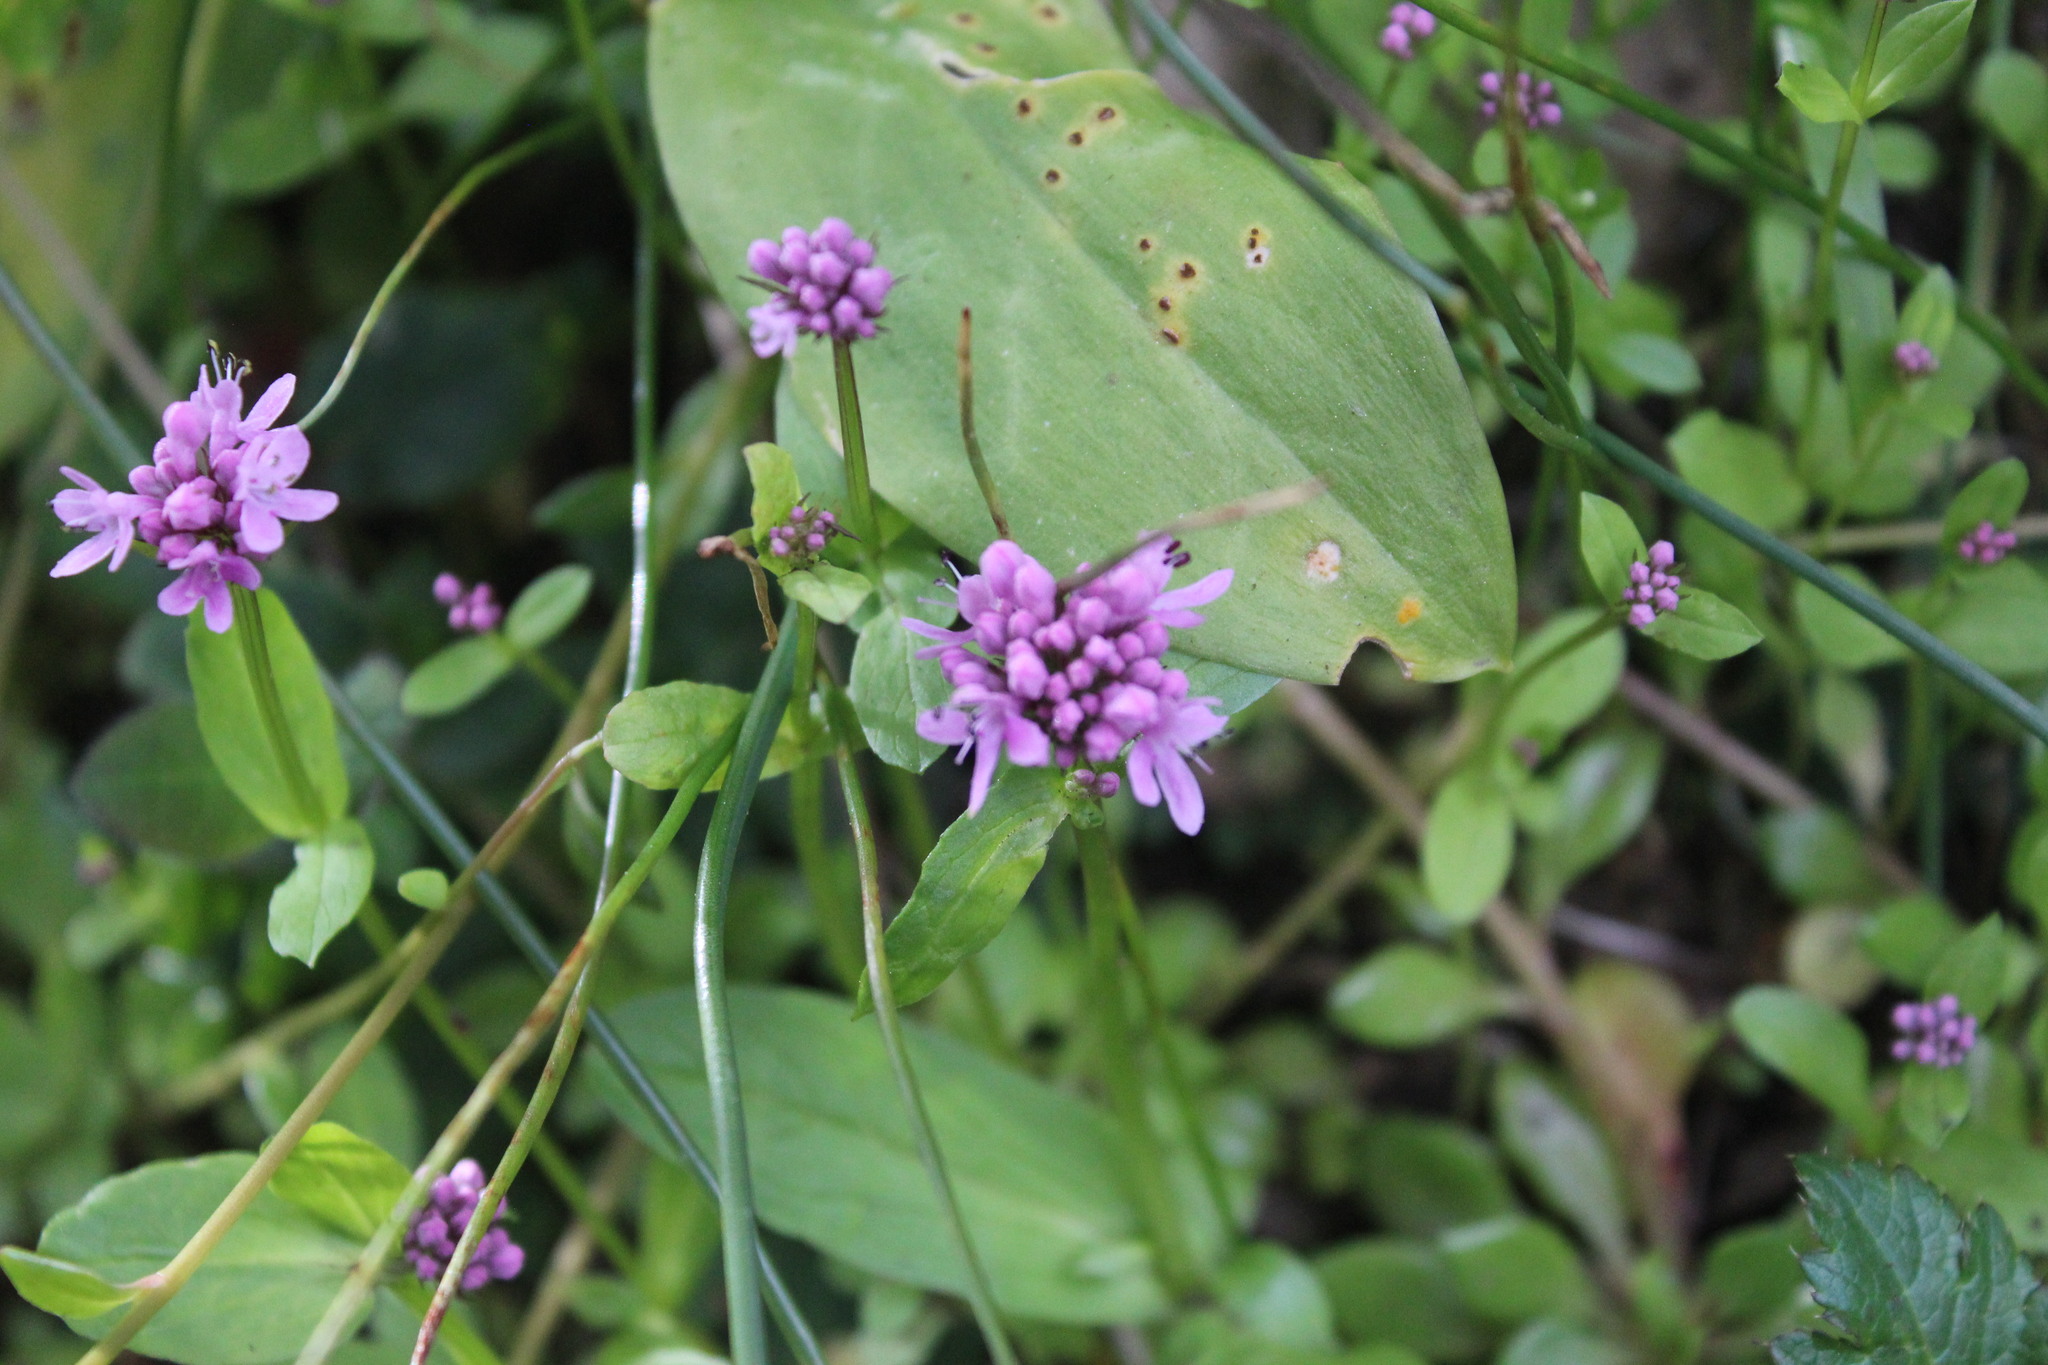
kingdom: Plantae
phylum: Tracheophyta
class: Magnoliopsida
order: Dipsacales
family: Caprifoliaceae
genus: Plectritis
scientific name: Plectritis congesta
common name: Pink plectritis
